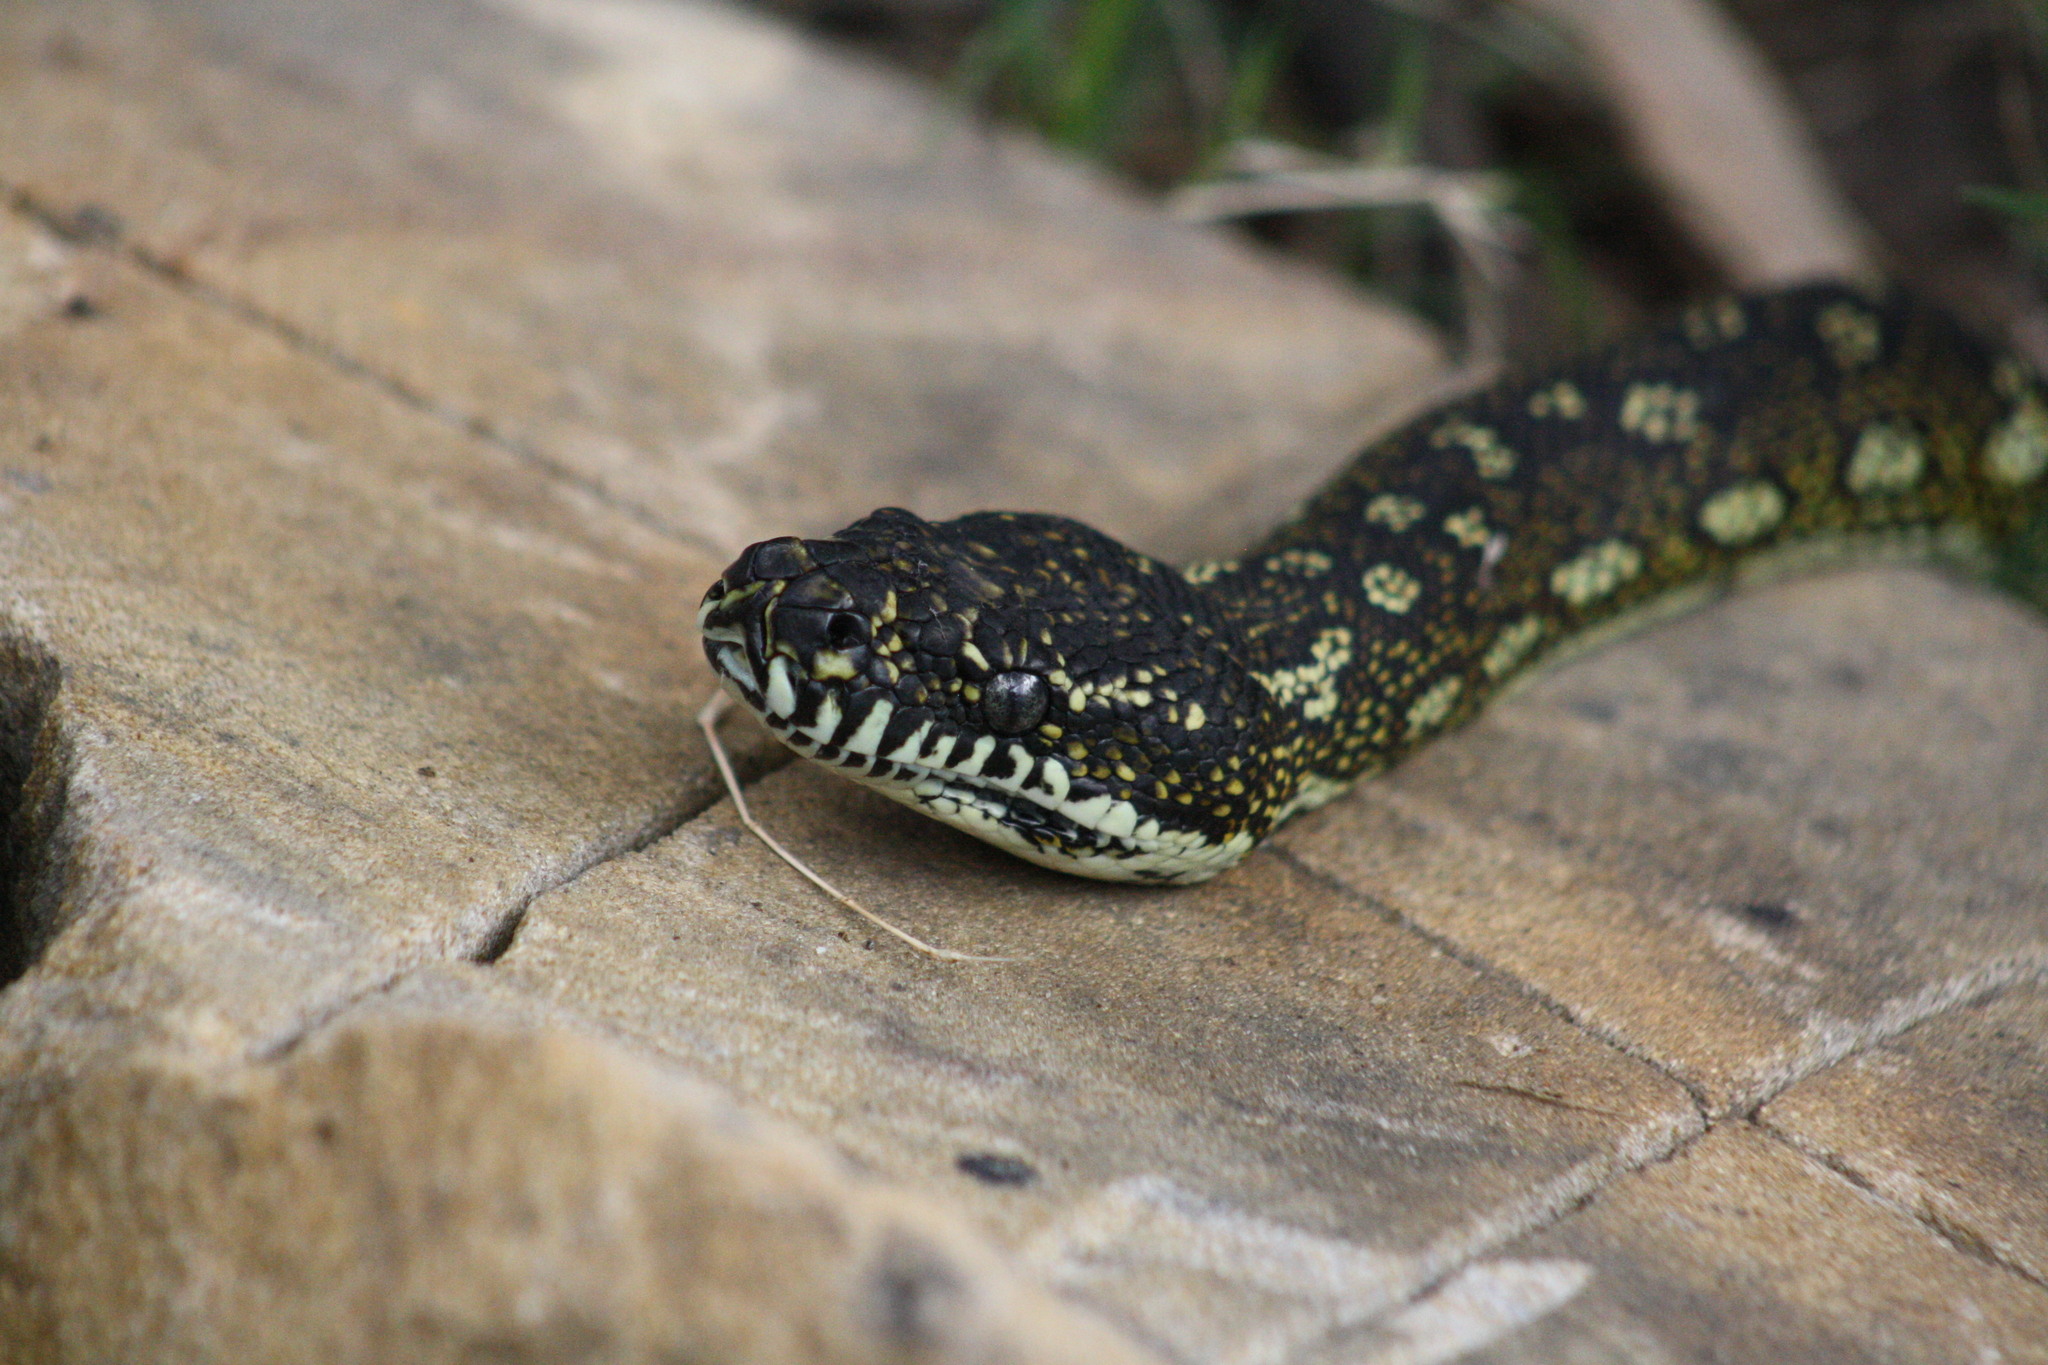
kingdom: Animalia
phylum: Chordata
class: Squamata
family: Pythonidae
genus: Morelia
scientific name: Morelia spilota
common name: Carpet python
